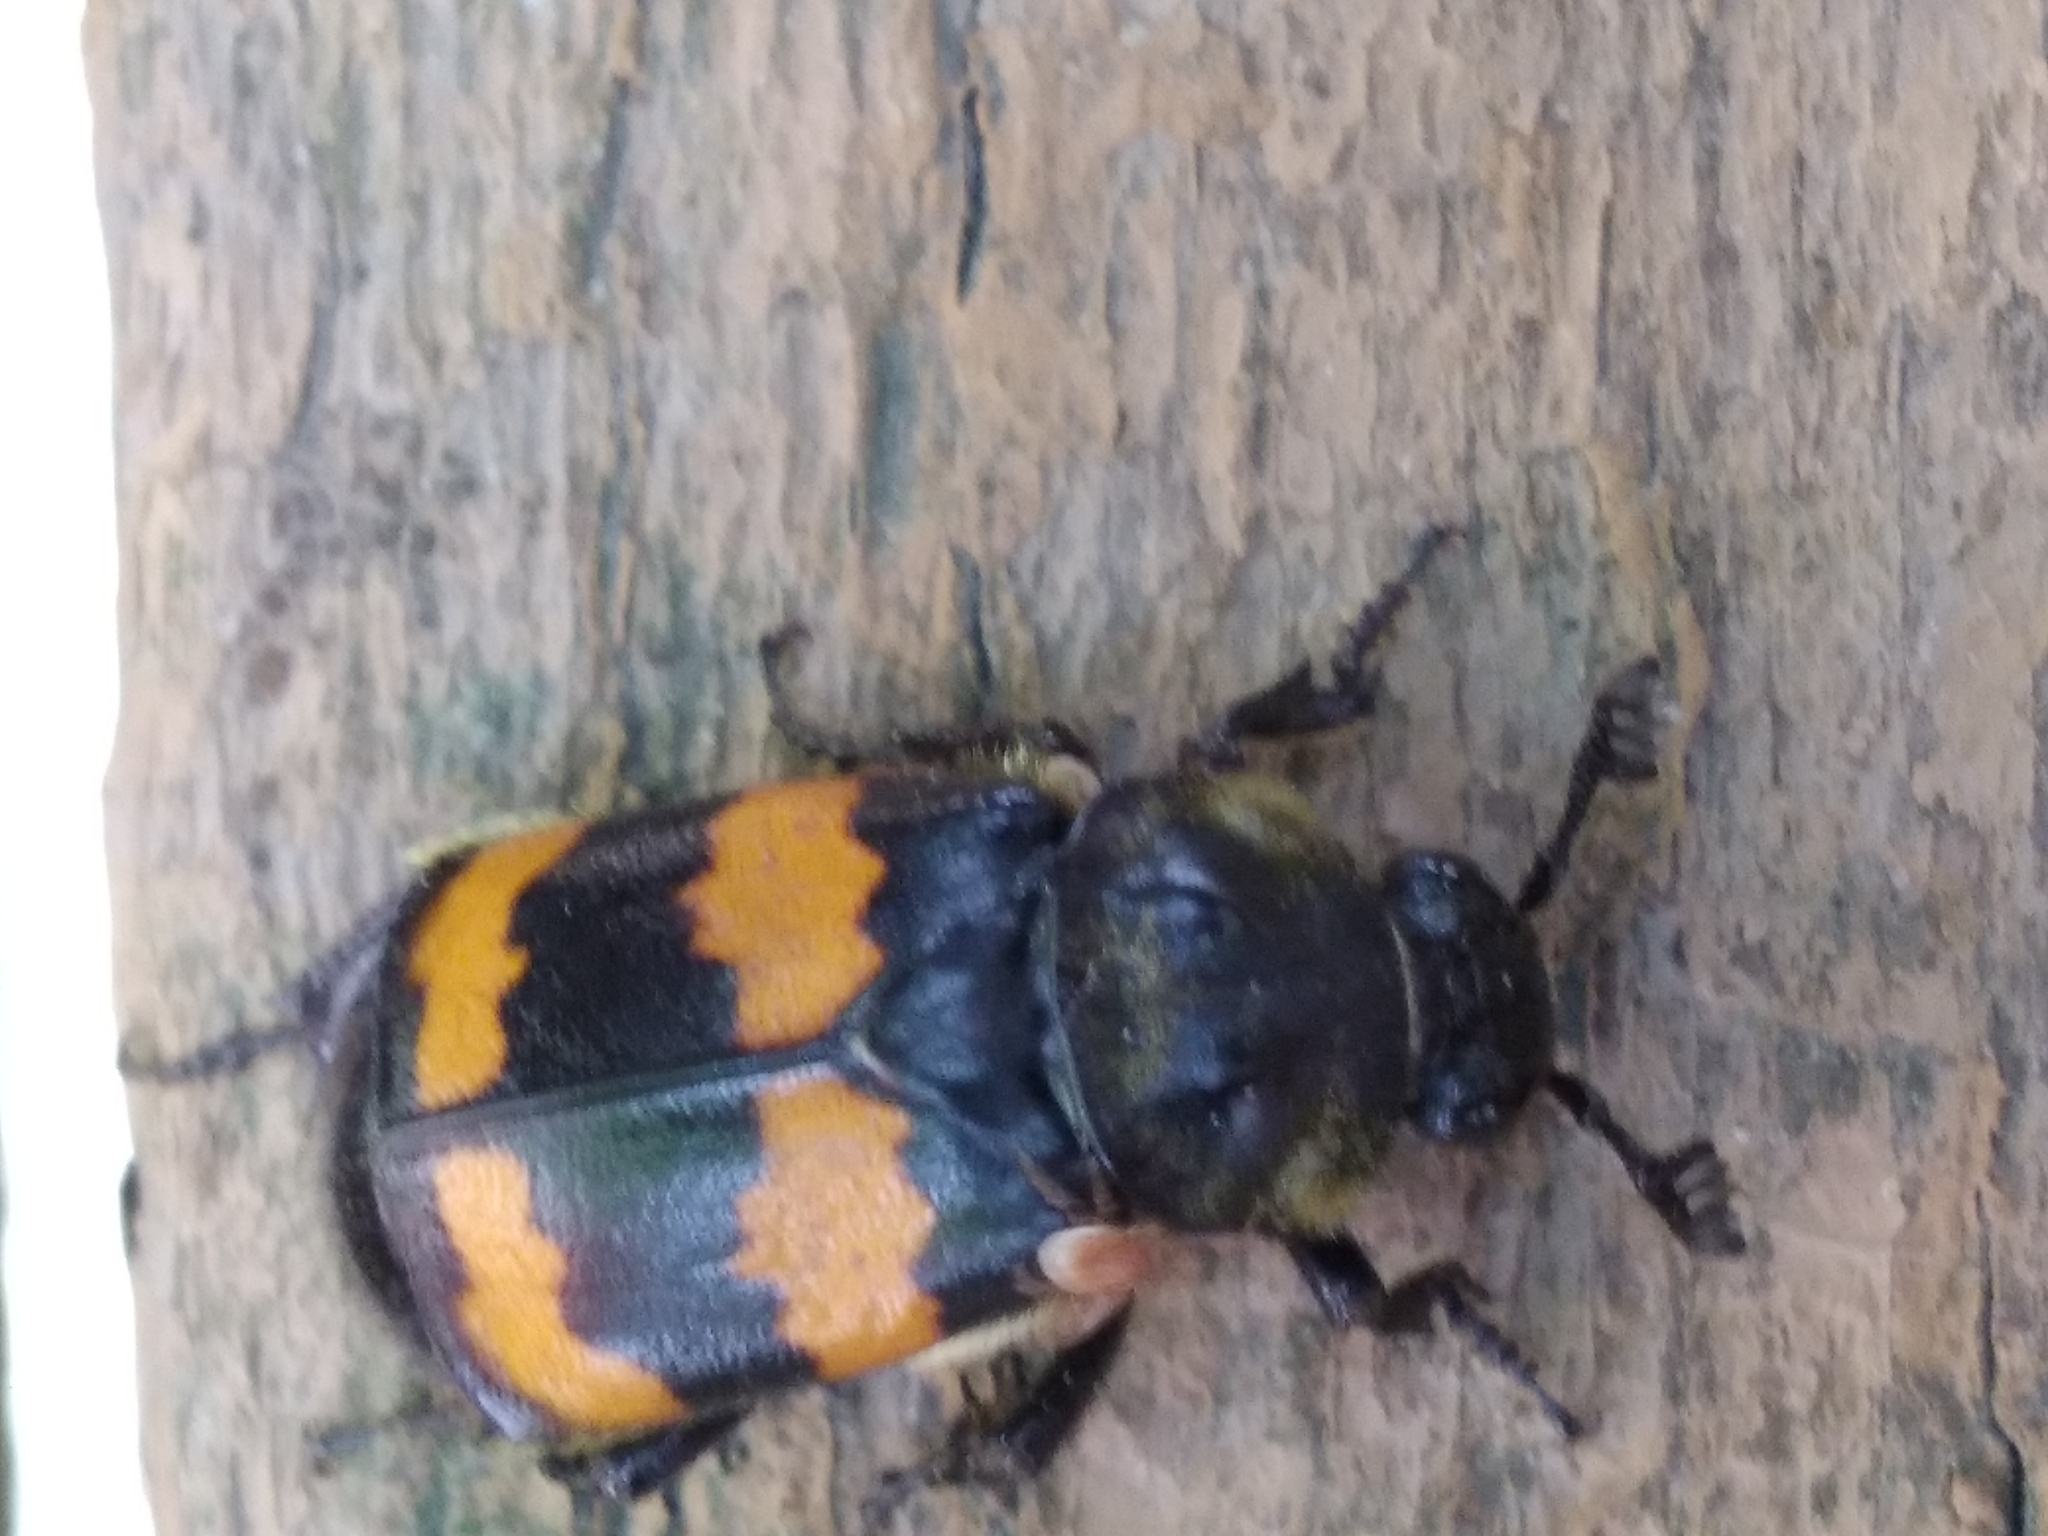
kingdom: Animalia
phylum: Arthropoda
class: Insecta
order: Coleoptera
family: Staphylinidae
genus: Nicrophorus
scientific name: Nicrophorus tomentosus
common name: Tomentose burying beetle
